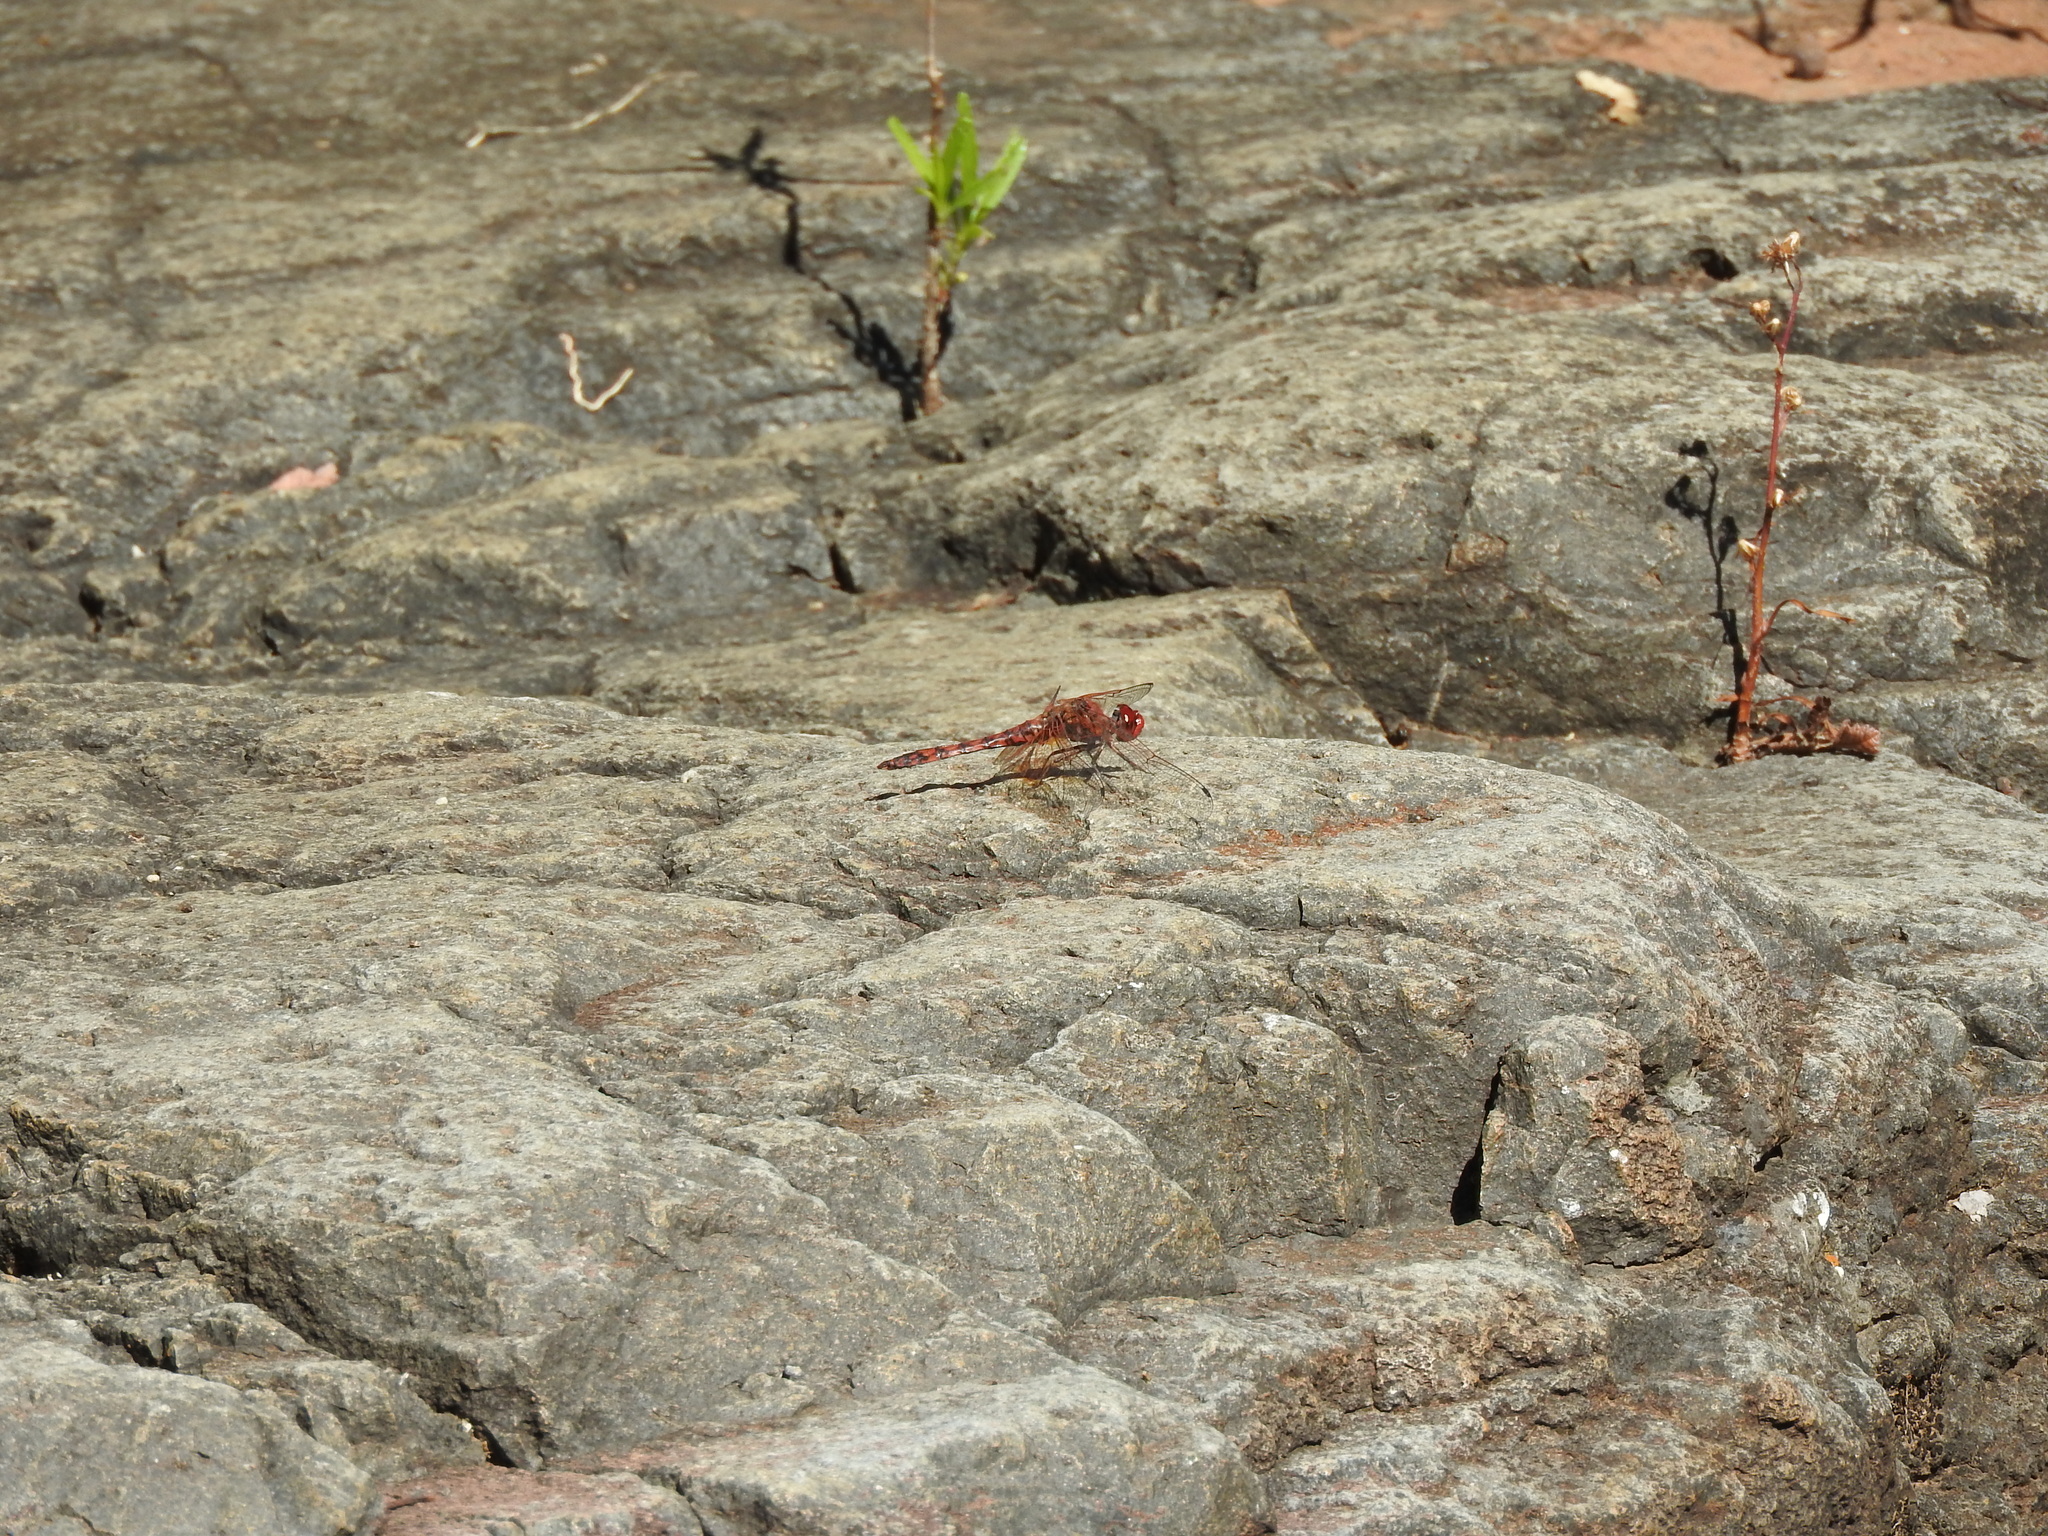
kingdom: Animalia
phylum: Arthropoda
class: Insecta
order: Odonata
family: Libellulidae
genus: Paltothemis
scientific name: Paltothemis lineatipes
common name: Red rock skimmer
